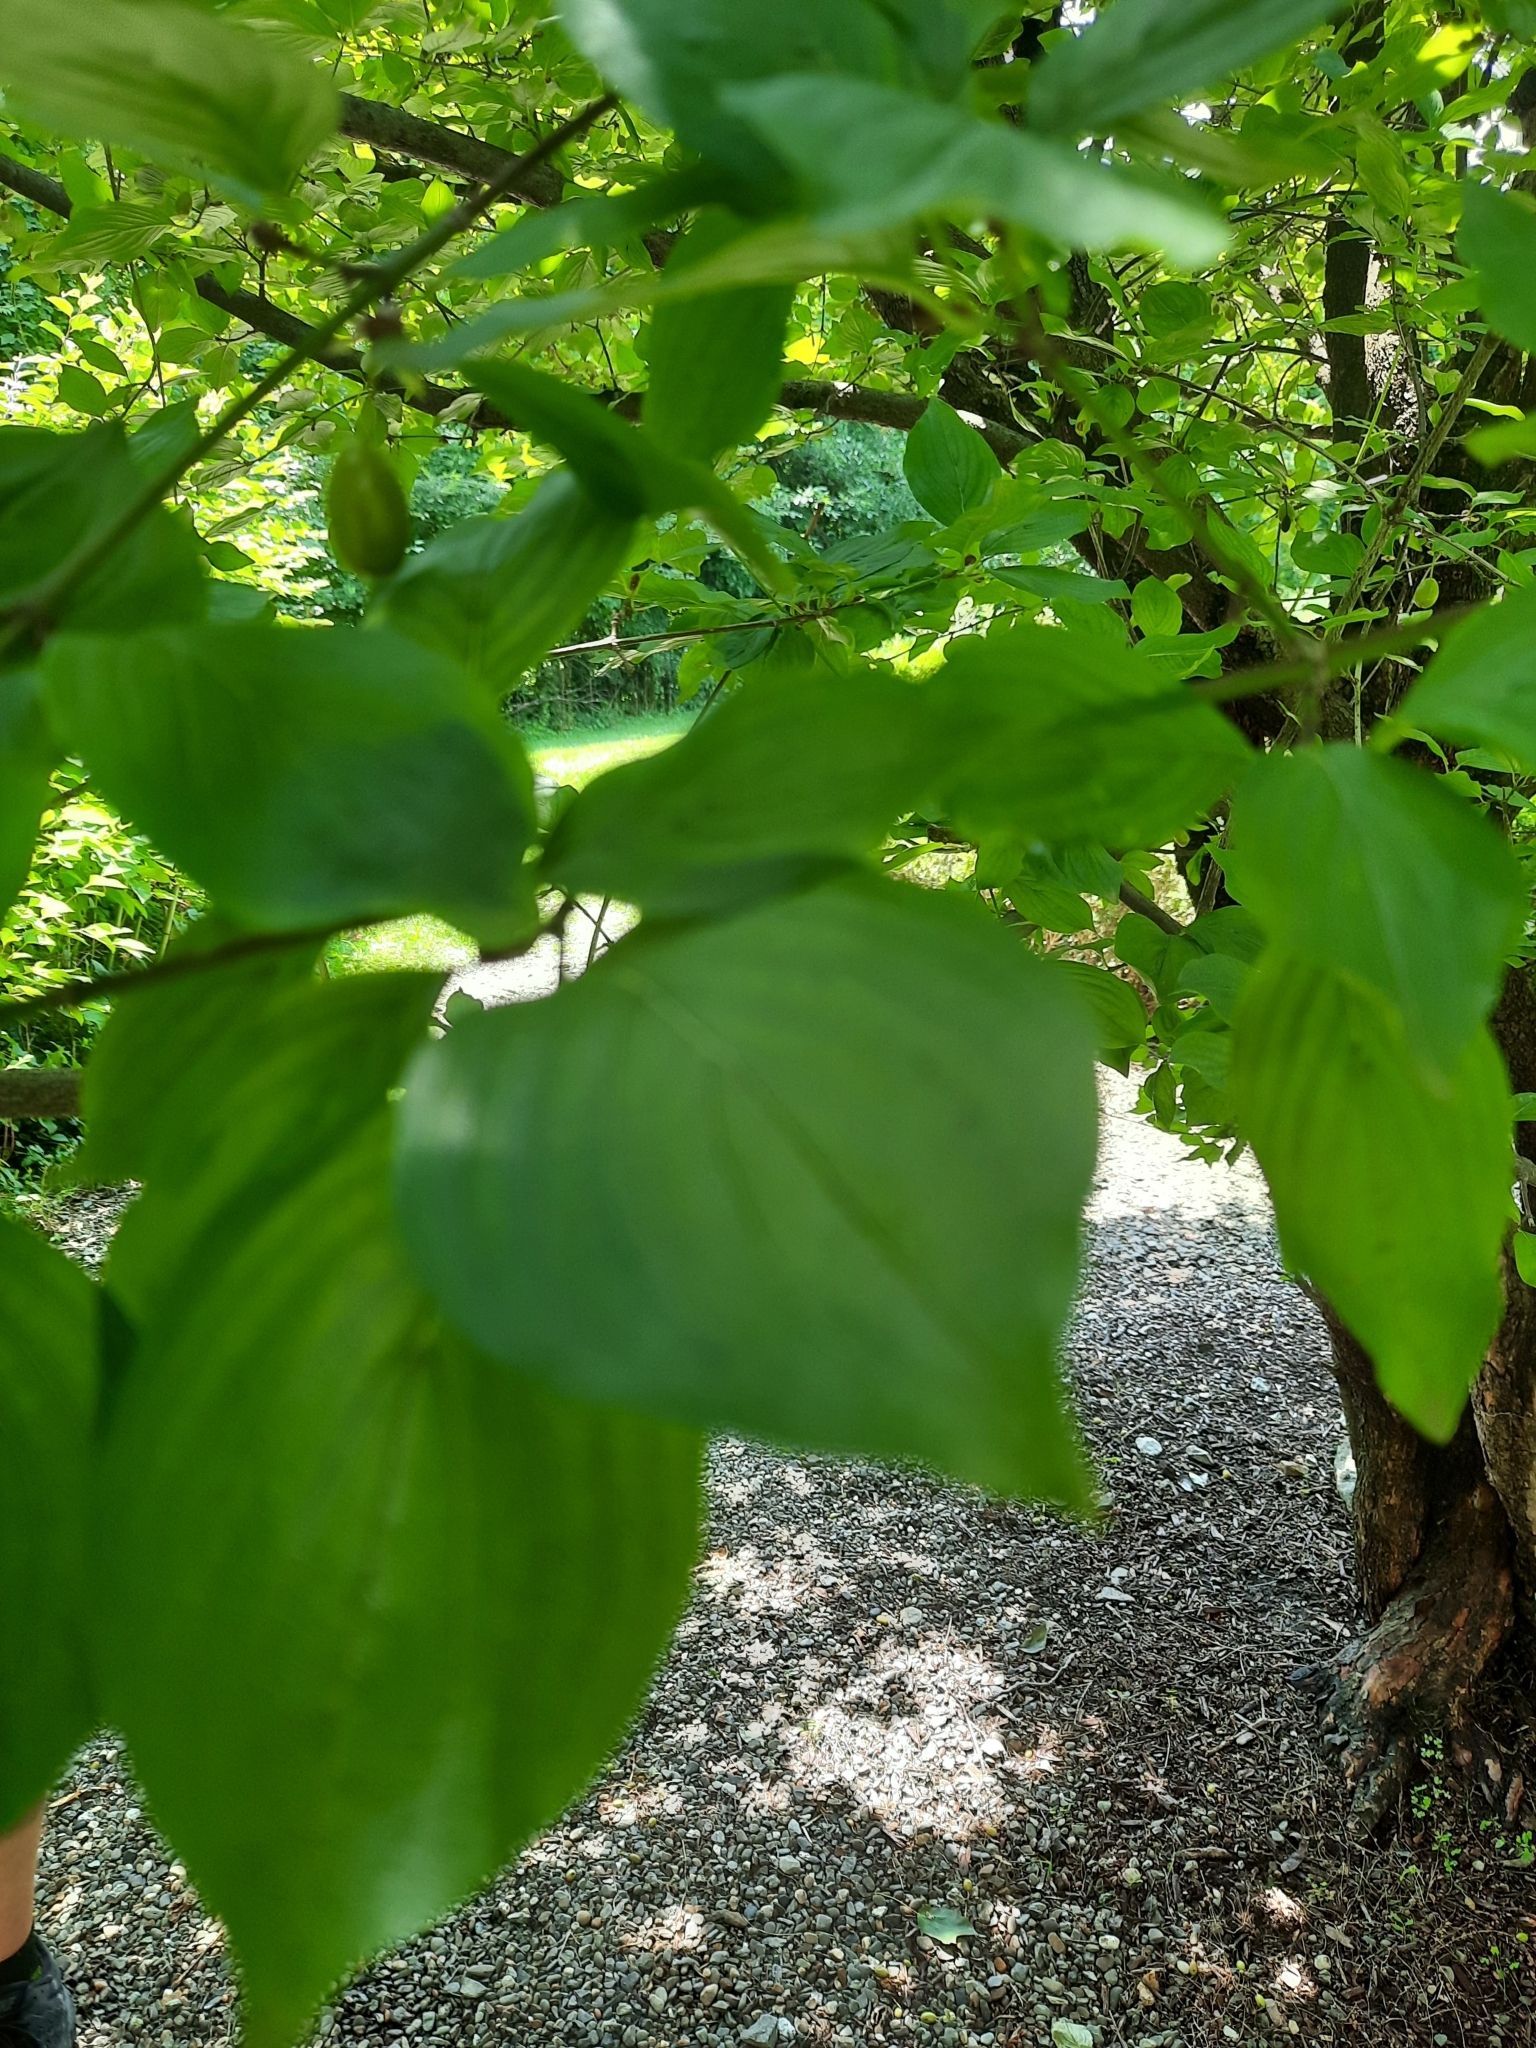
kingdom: Plantae
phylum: Tracheophyta
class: Magnoliopsida
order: Cornales
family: Cornaceae
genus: Cornus
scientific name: Cornus mas
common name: Cornelian-cherry
